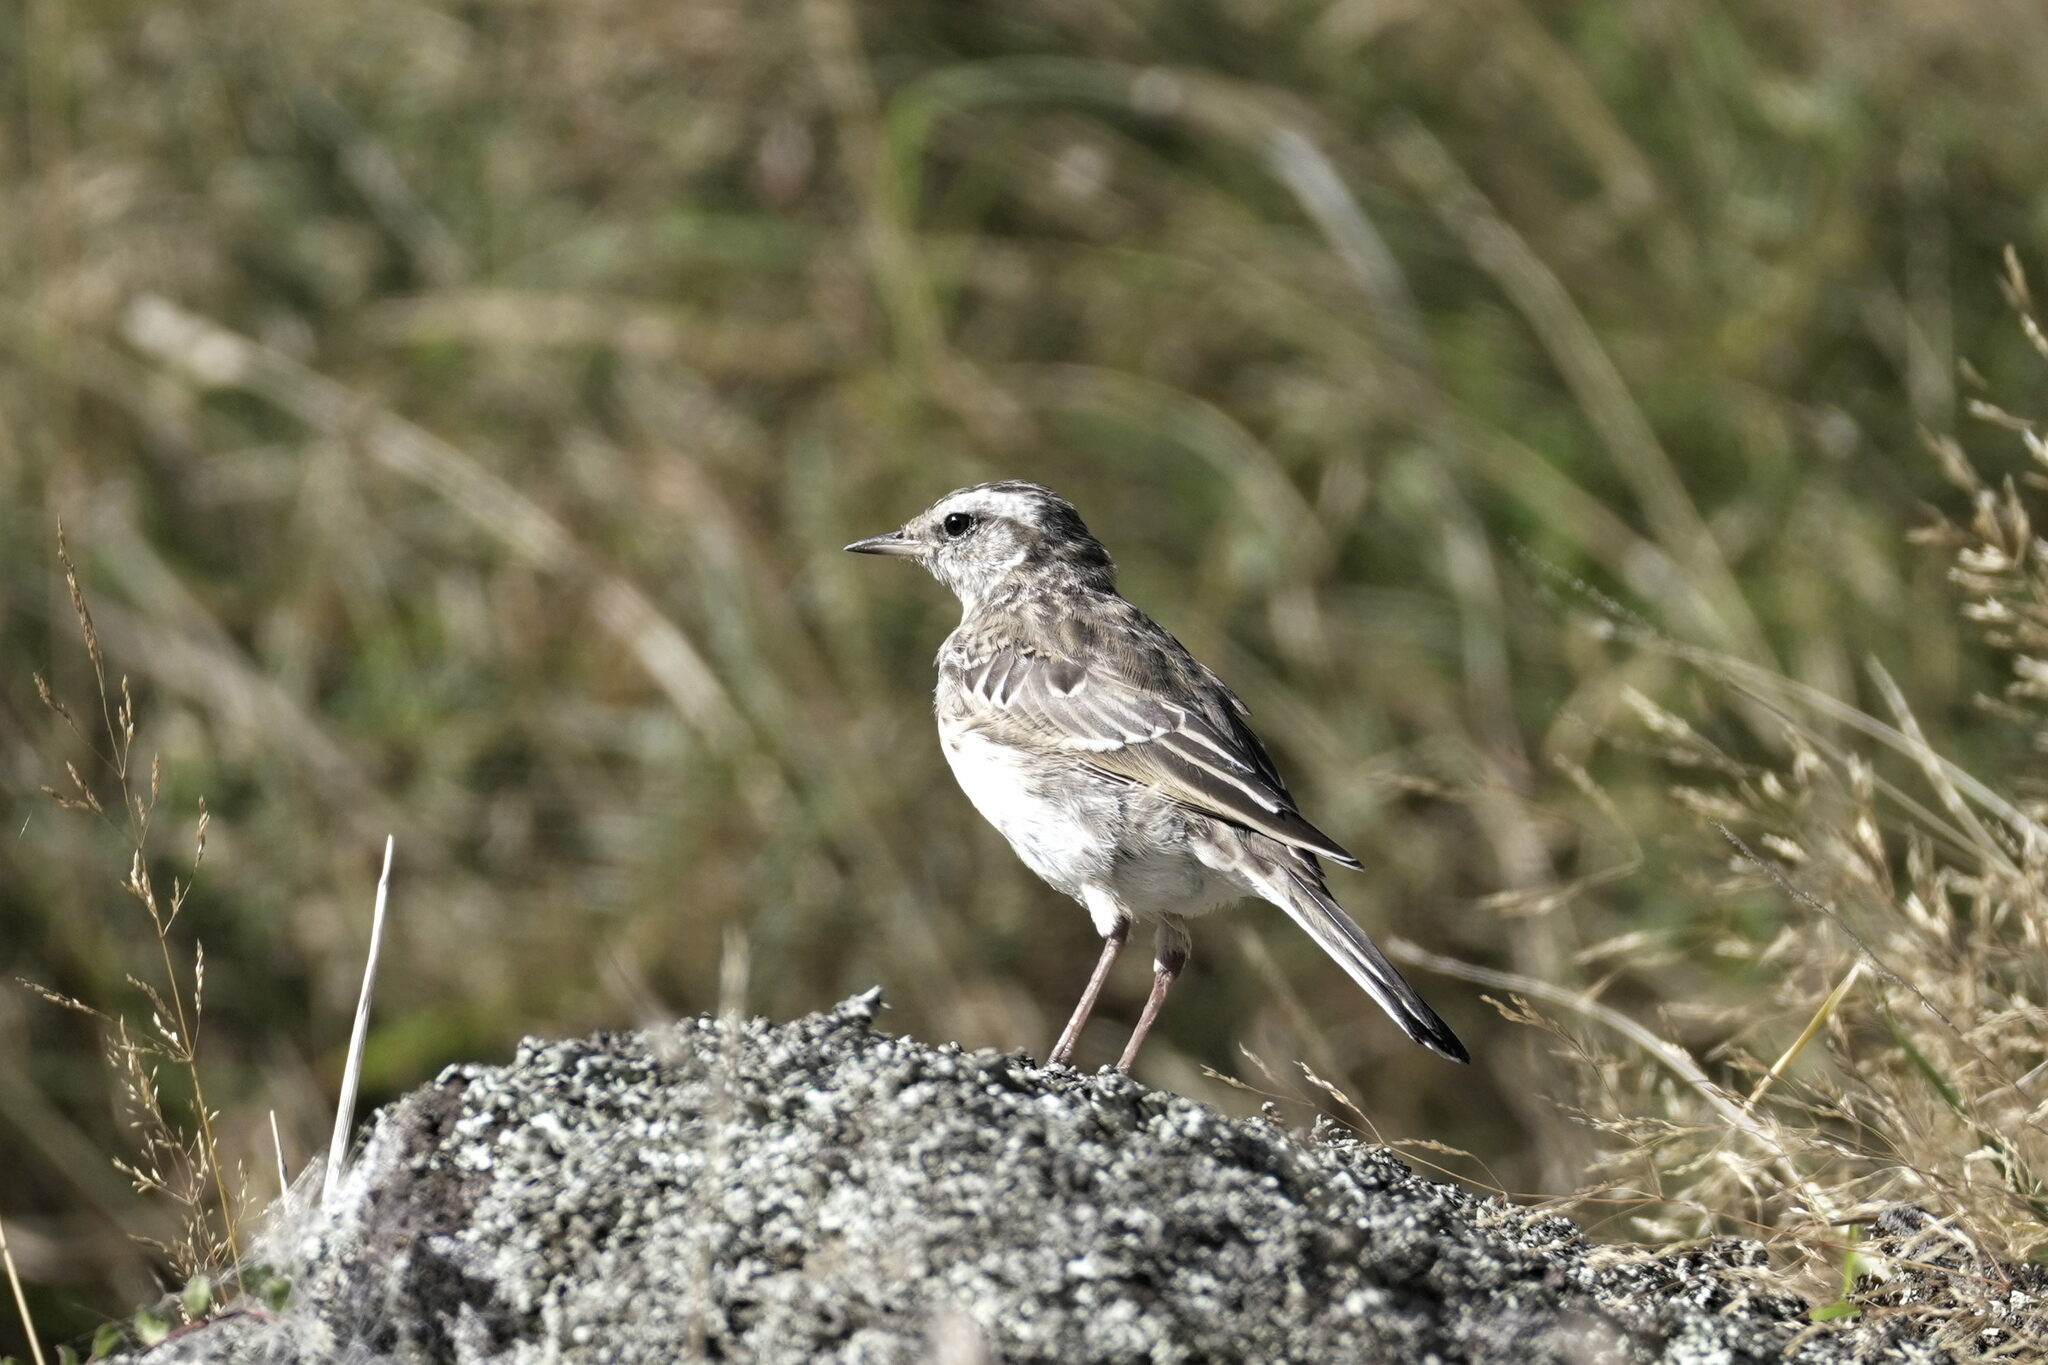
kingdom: Animalia
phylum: Chordata
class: Aves
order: Passeriformes
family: Motacillidae
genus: Anthus
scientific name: Anthus novaeseelandiae
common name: New zealand pipit
